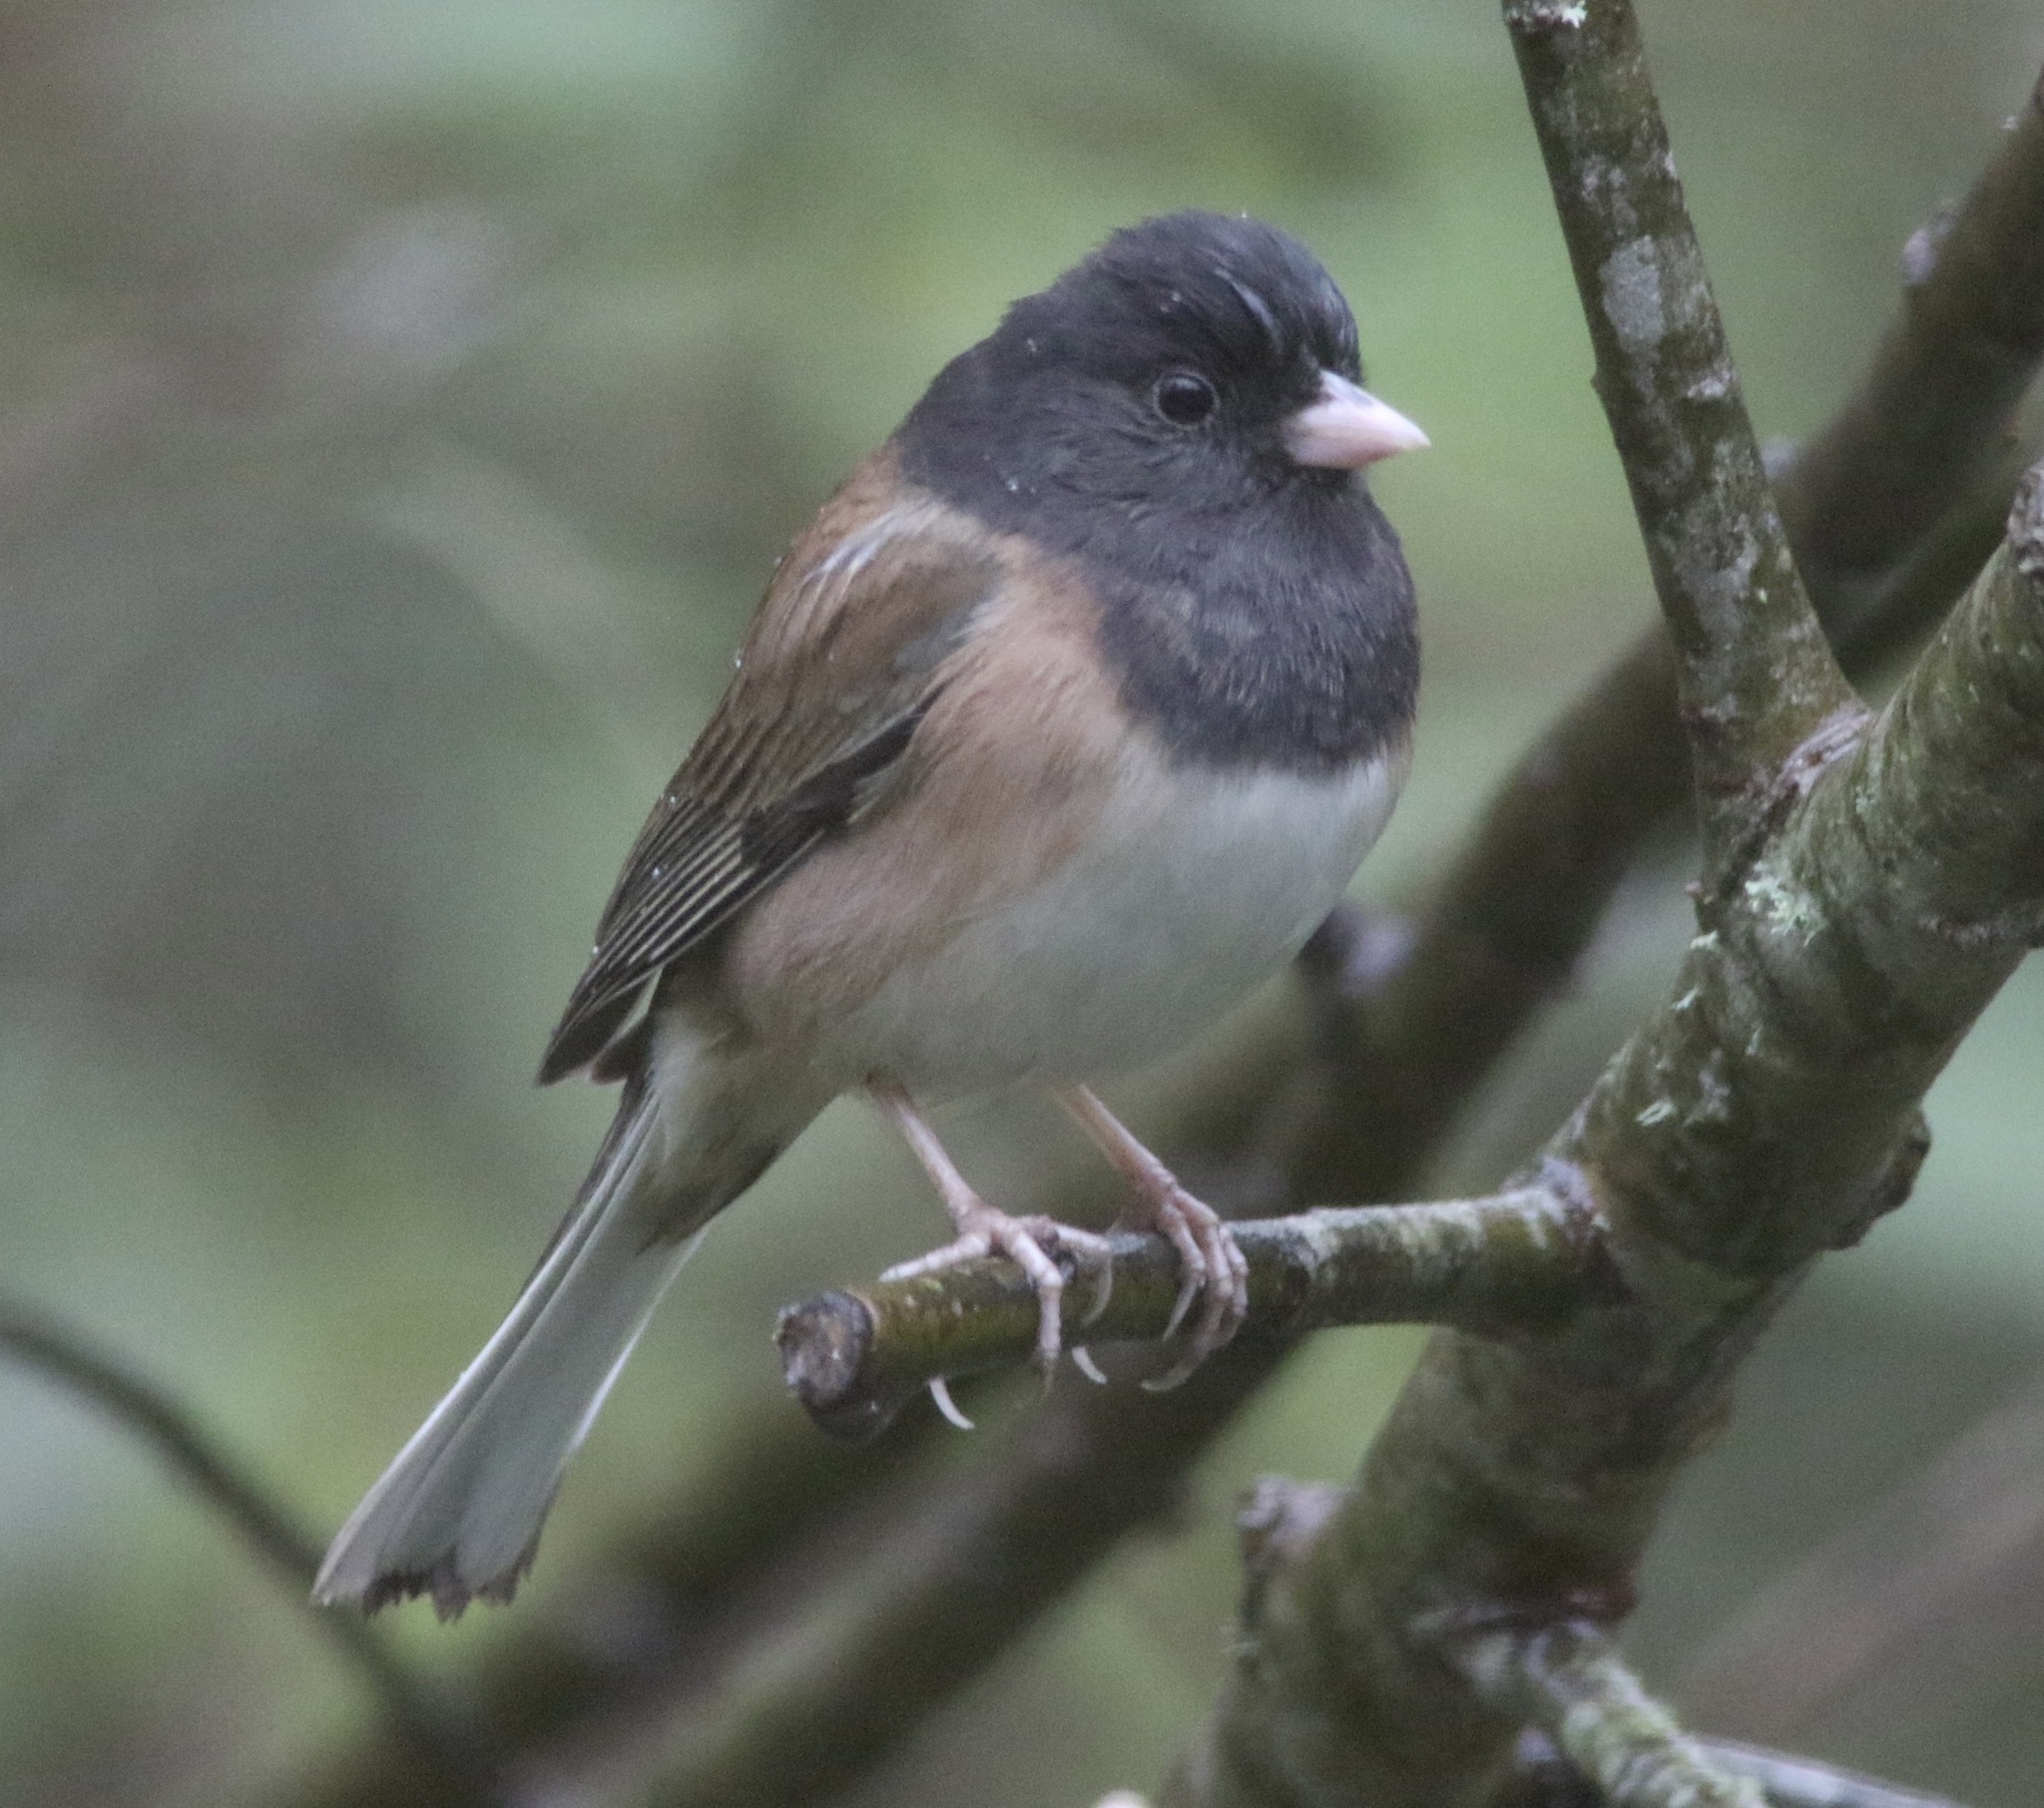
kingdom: Animalia
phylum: Chordata
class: Aves
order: Passeriformes
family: Passerellidae
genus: Junco
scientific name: Junco hyemalis
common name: Dark-eyed junco
